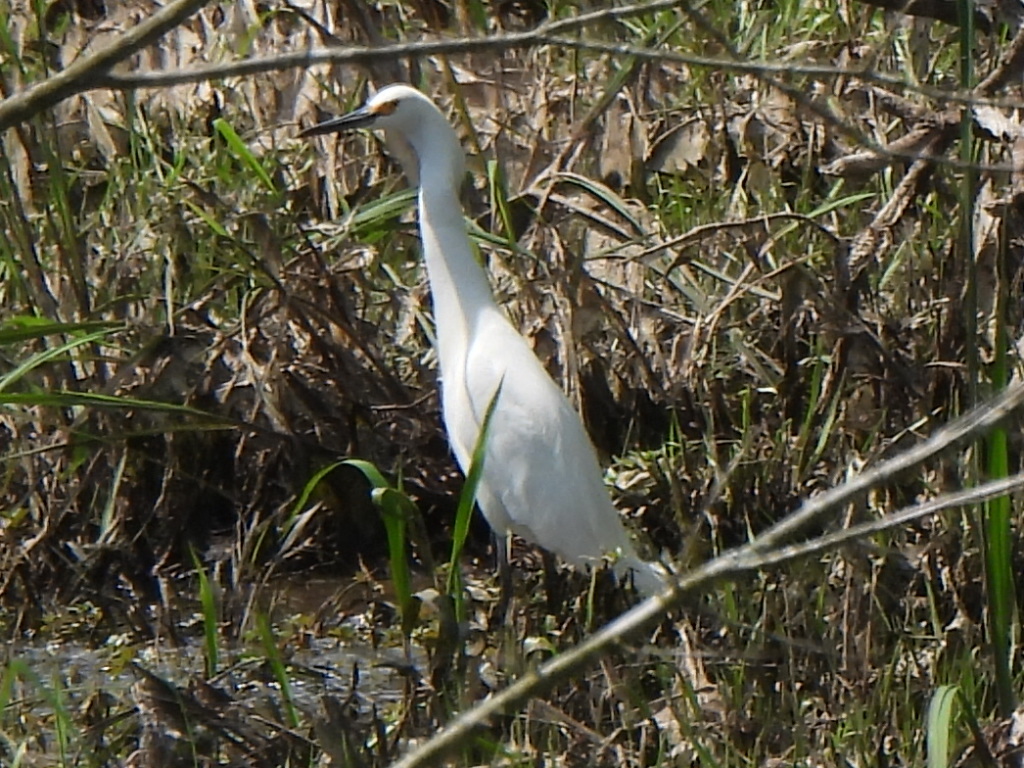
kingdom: Animalia
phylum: Chordata
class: Aves
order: Pelecaniformes
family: Ardeidae
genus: Egretta
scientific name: Egretta thula
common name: Snowy egret
